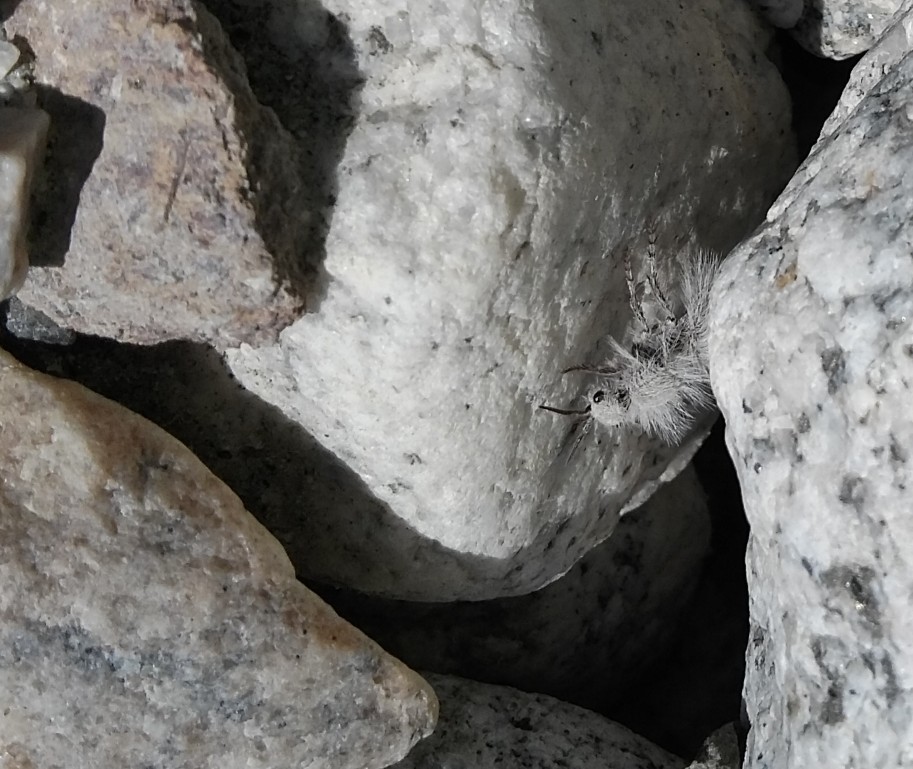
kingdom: Animalia
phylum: Arthropoda
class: Insecta
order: Hymenoptera
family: Mutillidae
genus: Dasymutilla
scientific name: Dasymutilla gloriosa
